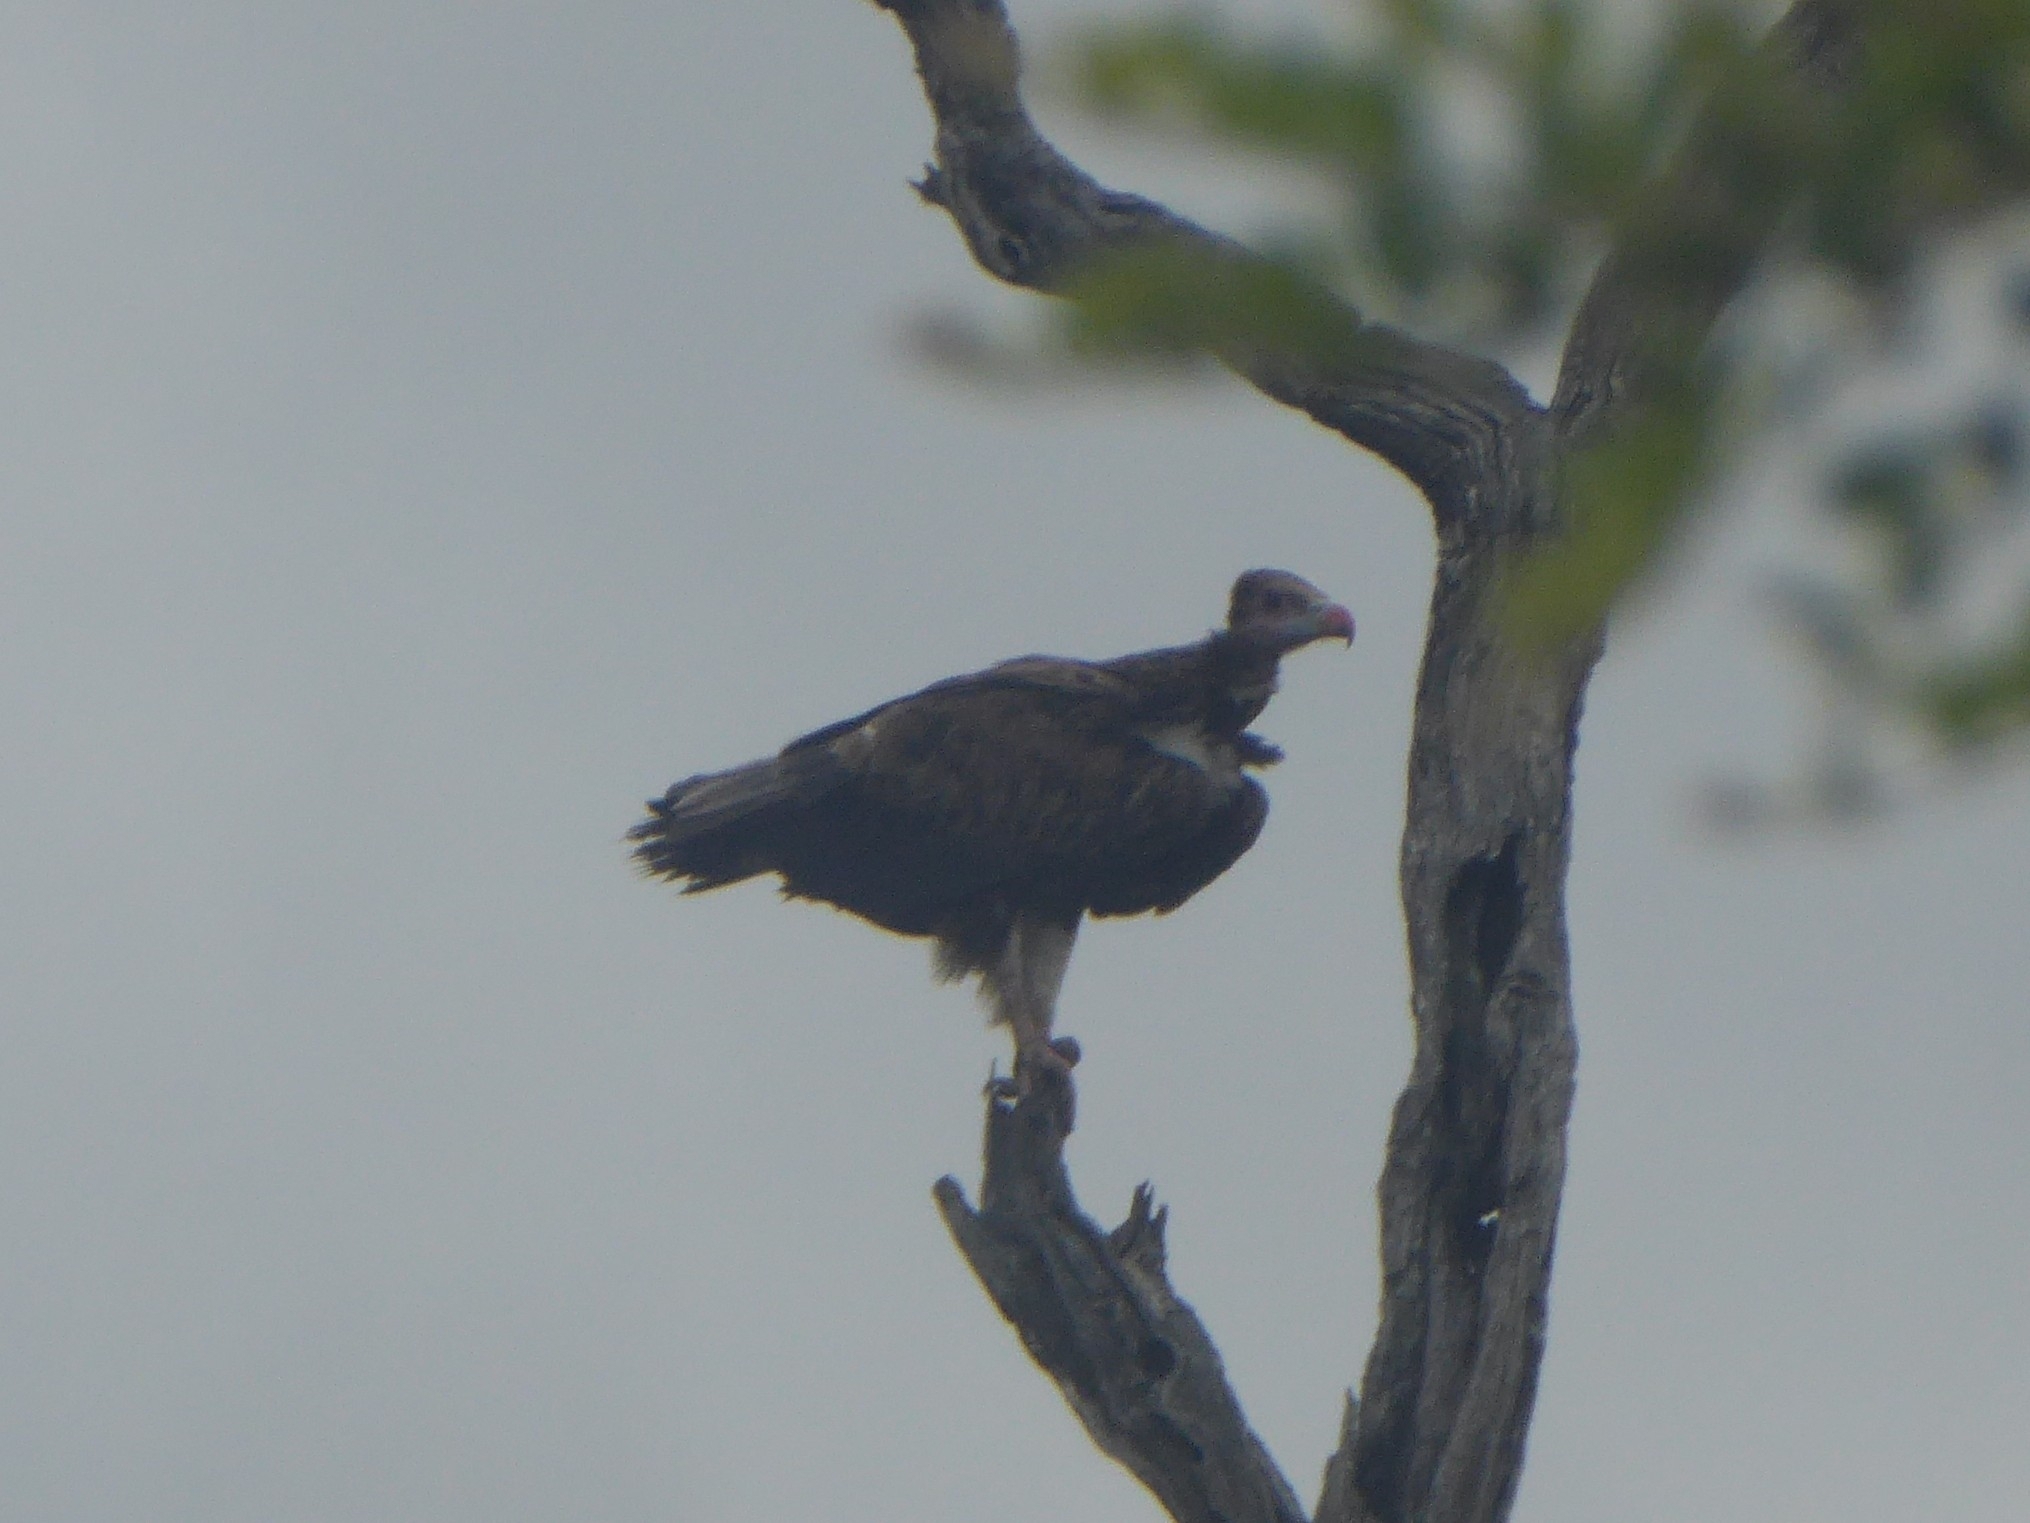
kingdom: Animalia
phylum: Chordata
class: Aves
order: Accipitriformes
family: Accipitridae
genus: Trigonoceps
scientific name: Trigonoceps occipitalis
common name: White-headed vulture
